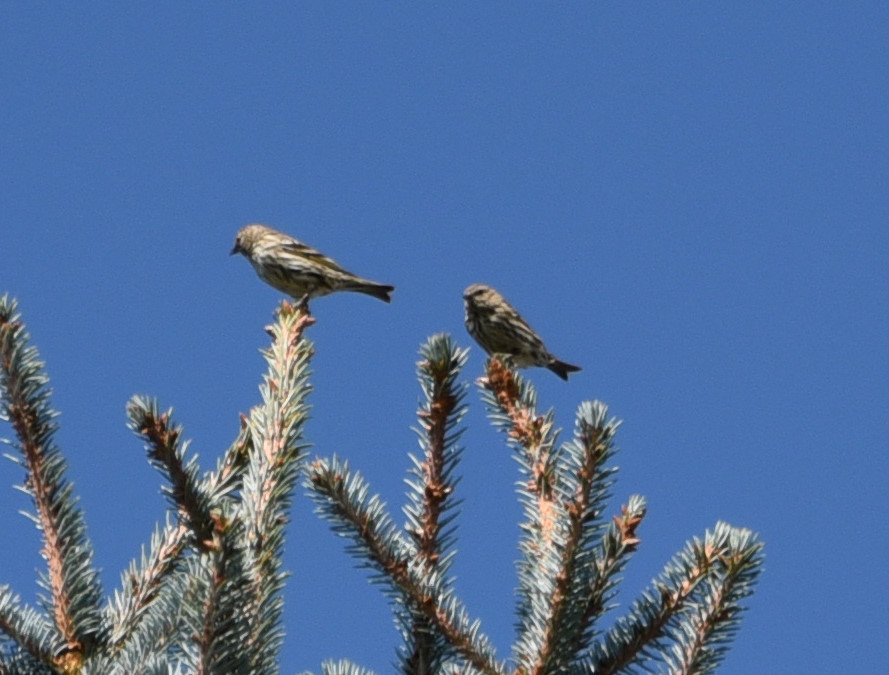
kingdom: Animalia
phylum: Chordata
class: Aves
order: Passeriformes
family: Fringillidae
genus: Spinus
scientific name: Spinus pinus
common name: Pine siskin
